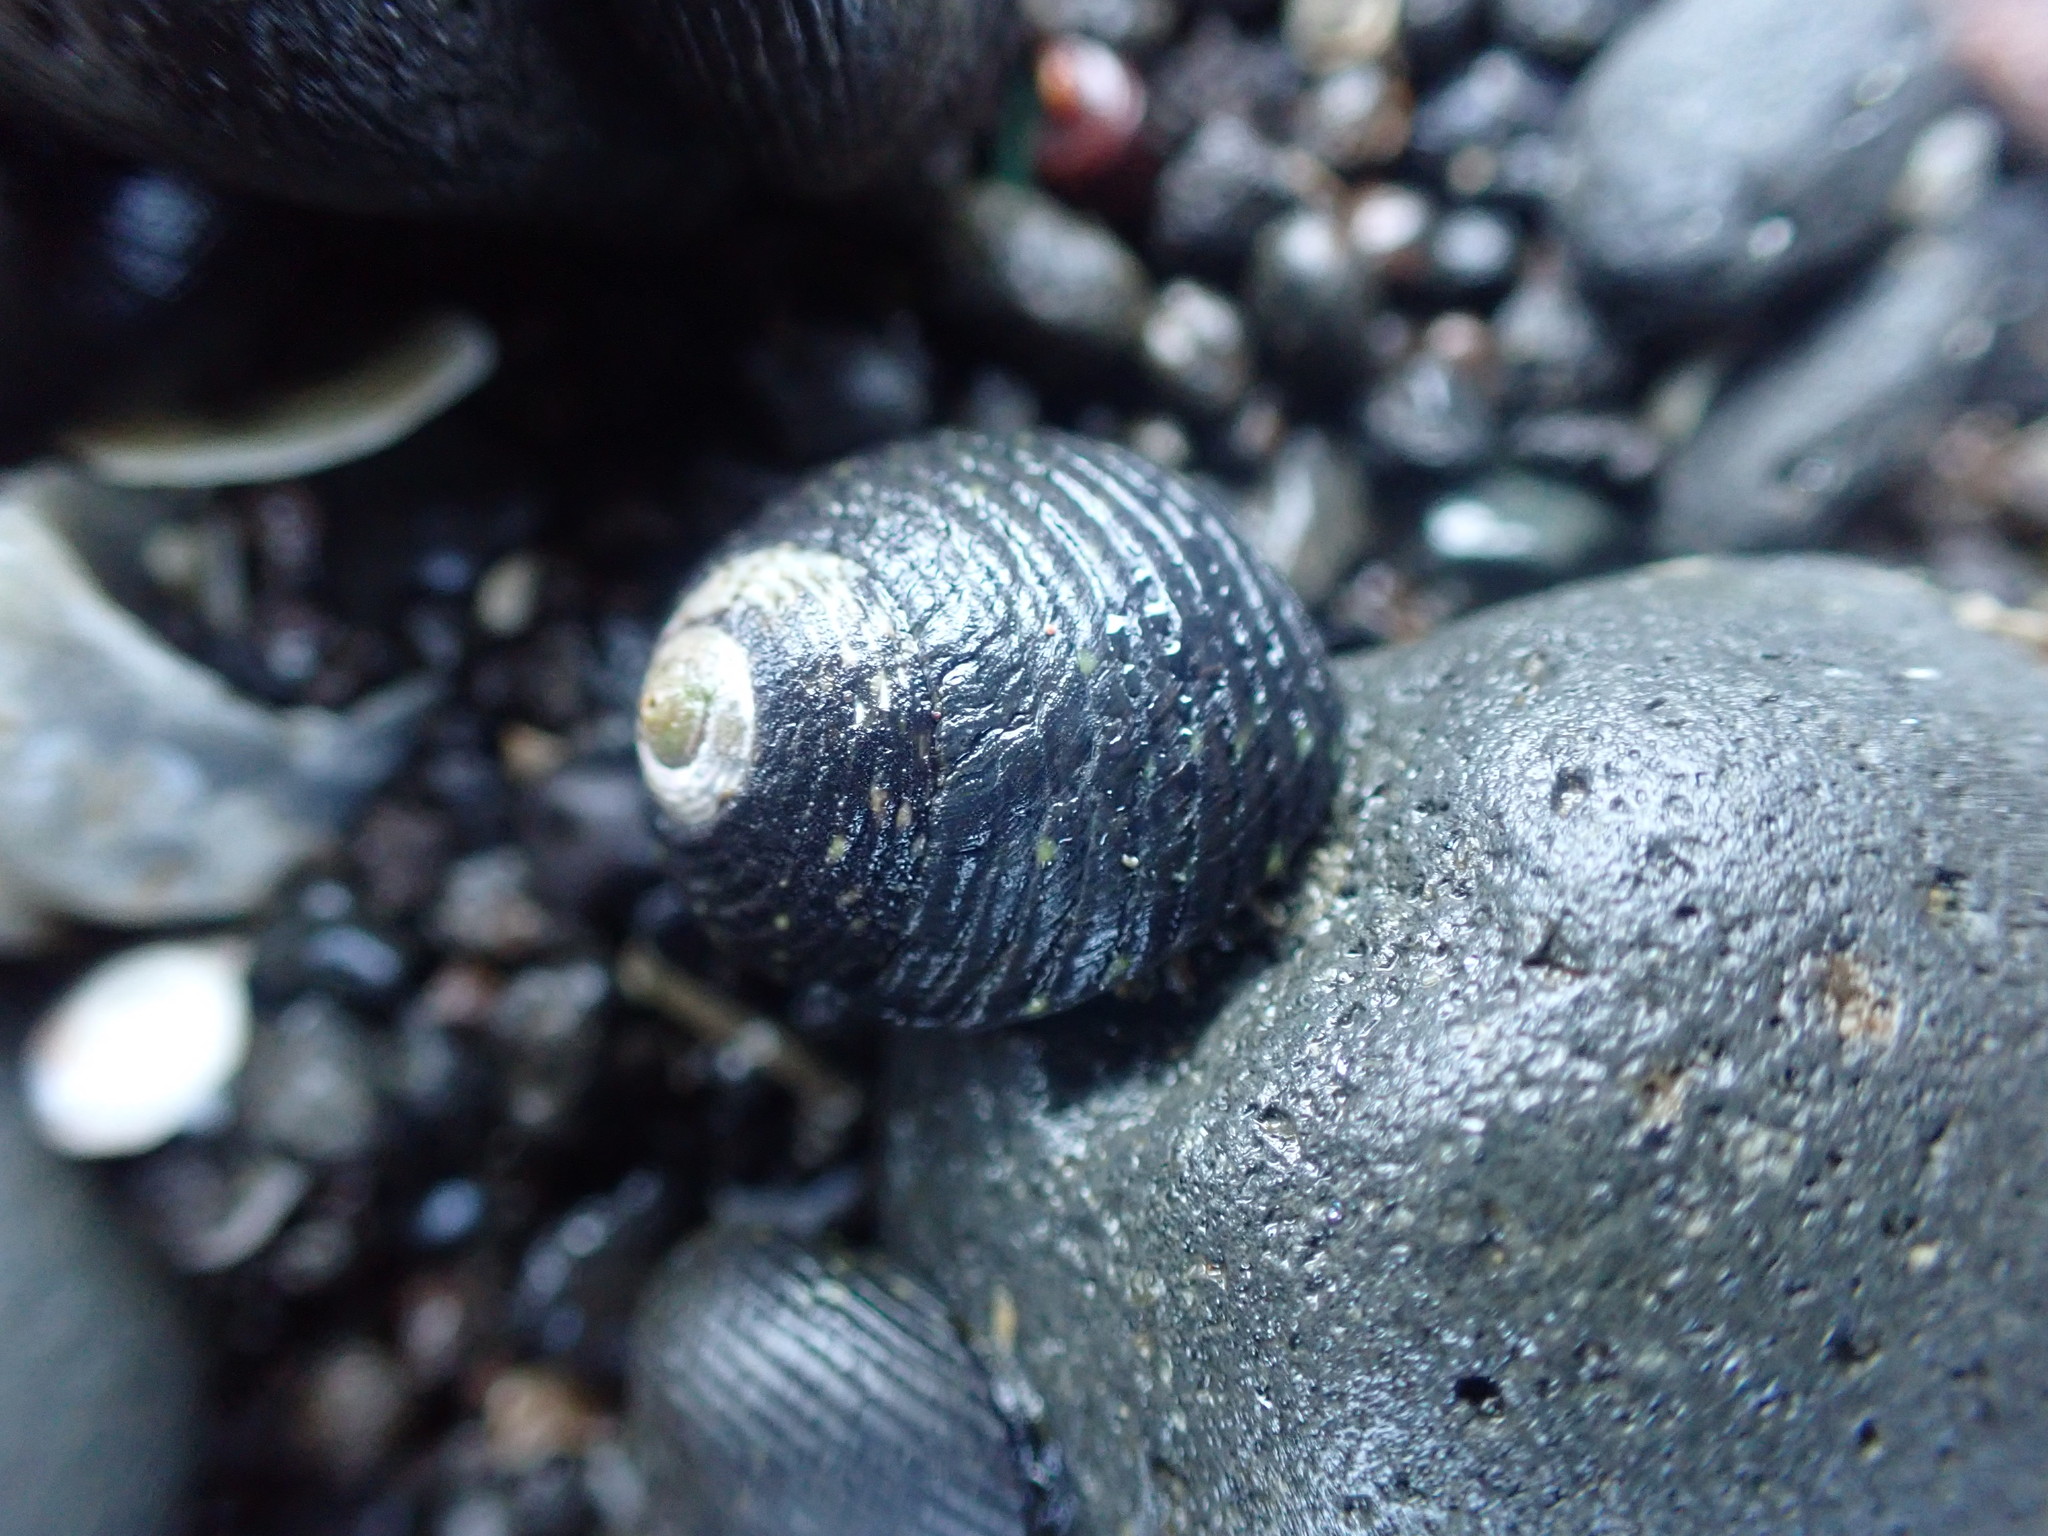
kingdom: Animalia
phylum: Mollusca
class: Gastropoda
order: Trochida
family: Trochidae
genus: Diloma
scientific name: Diloma zelandicum
